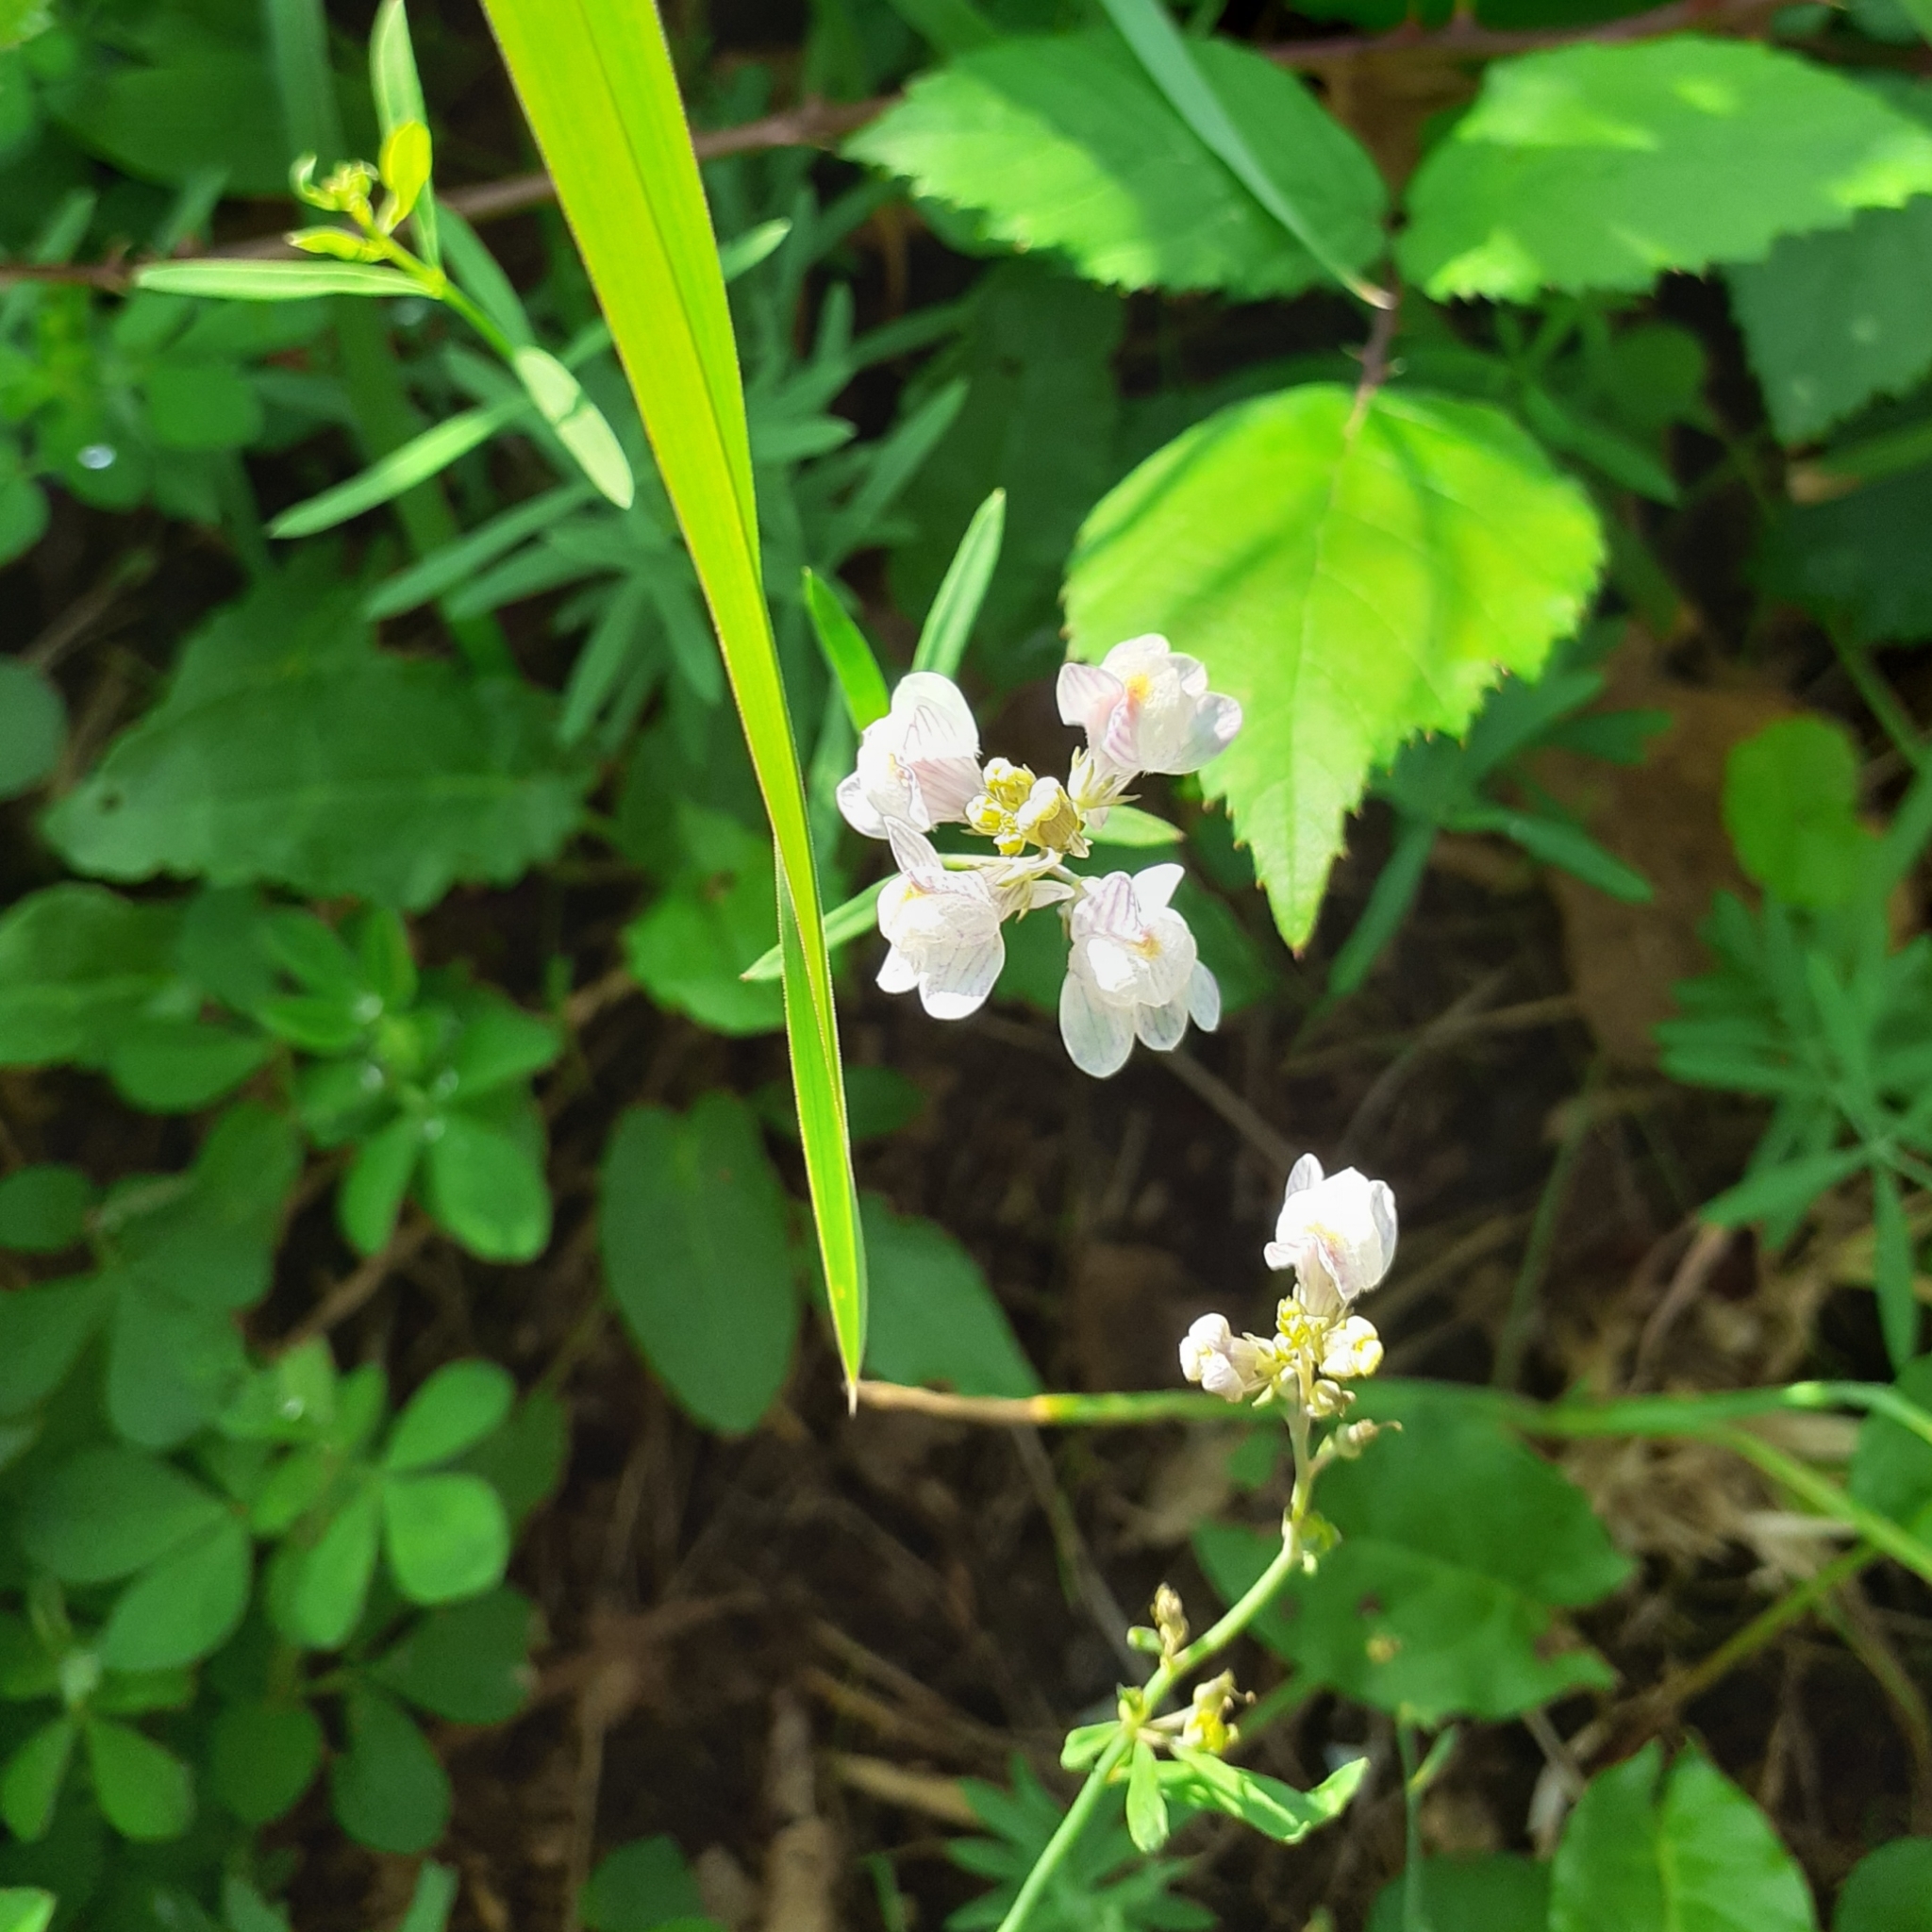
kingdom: Plantae
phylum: Tracheophyta
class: Magnoliopsida
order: Lamiales
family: Plantaginaceae
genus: Linaria
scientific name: Linaria repens
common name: Pale toadflax
